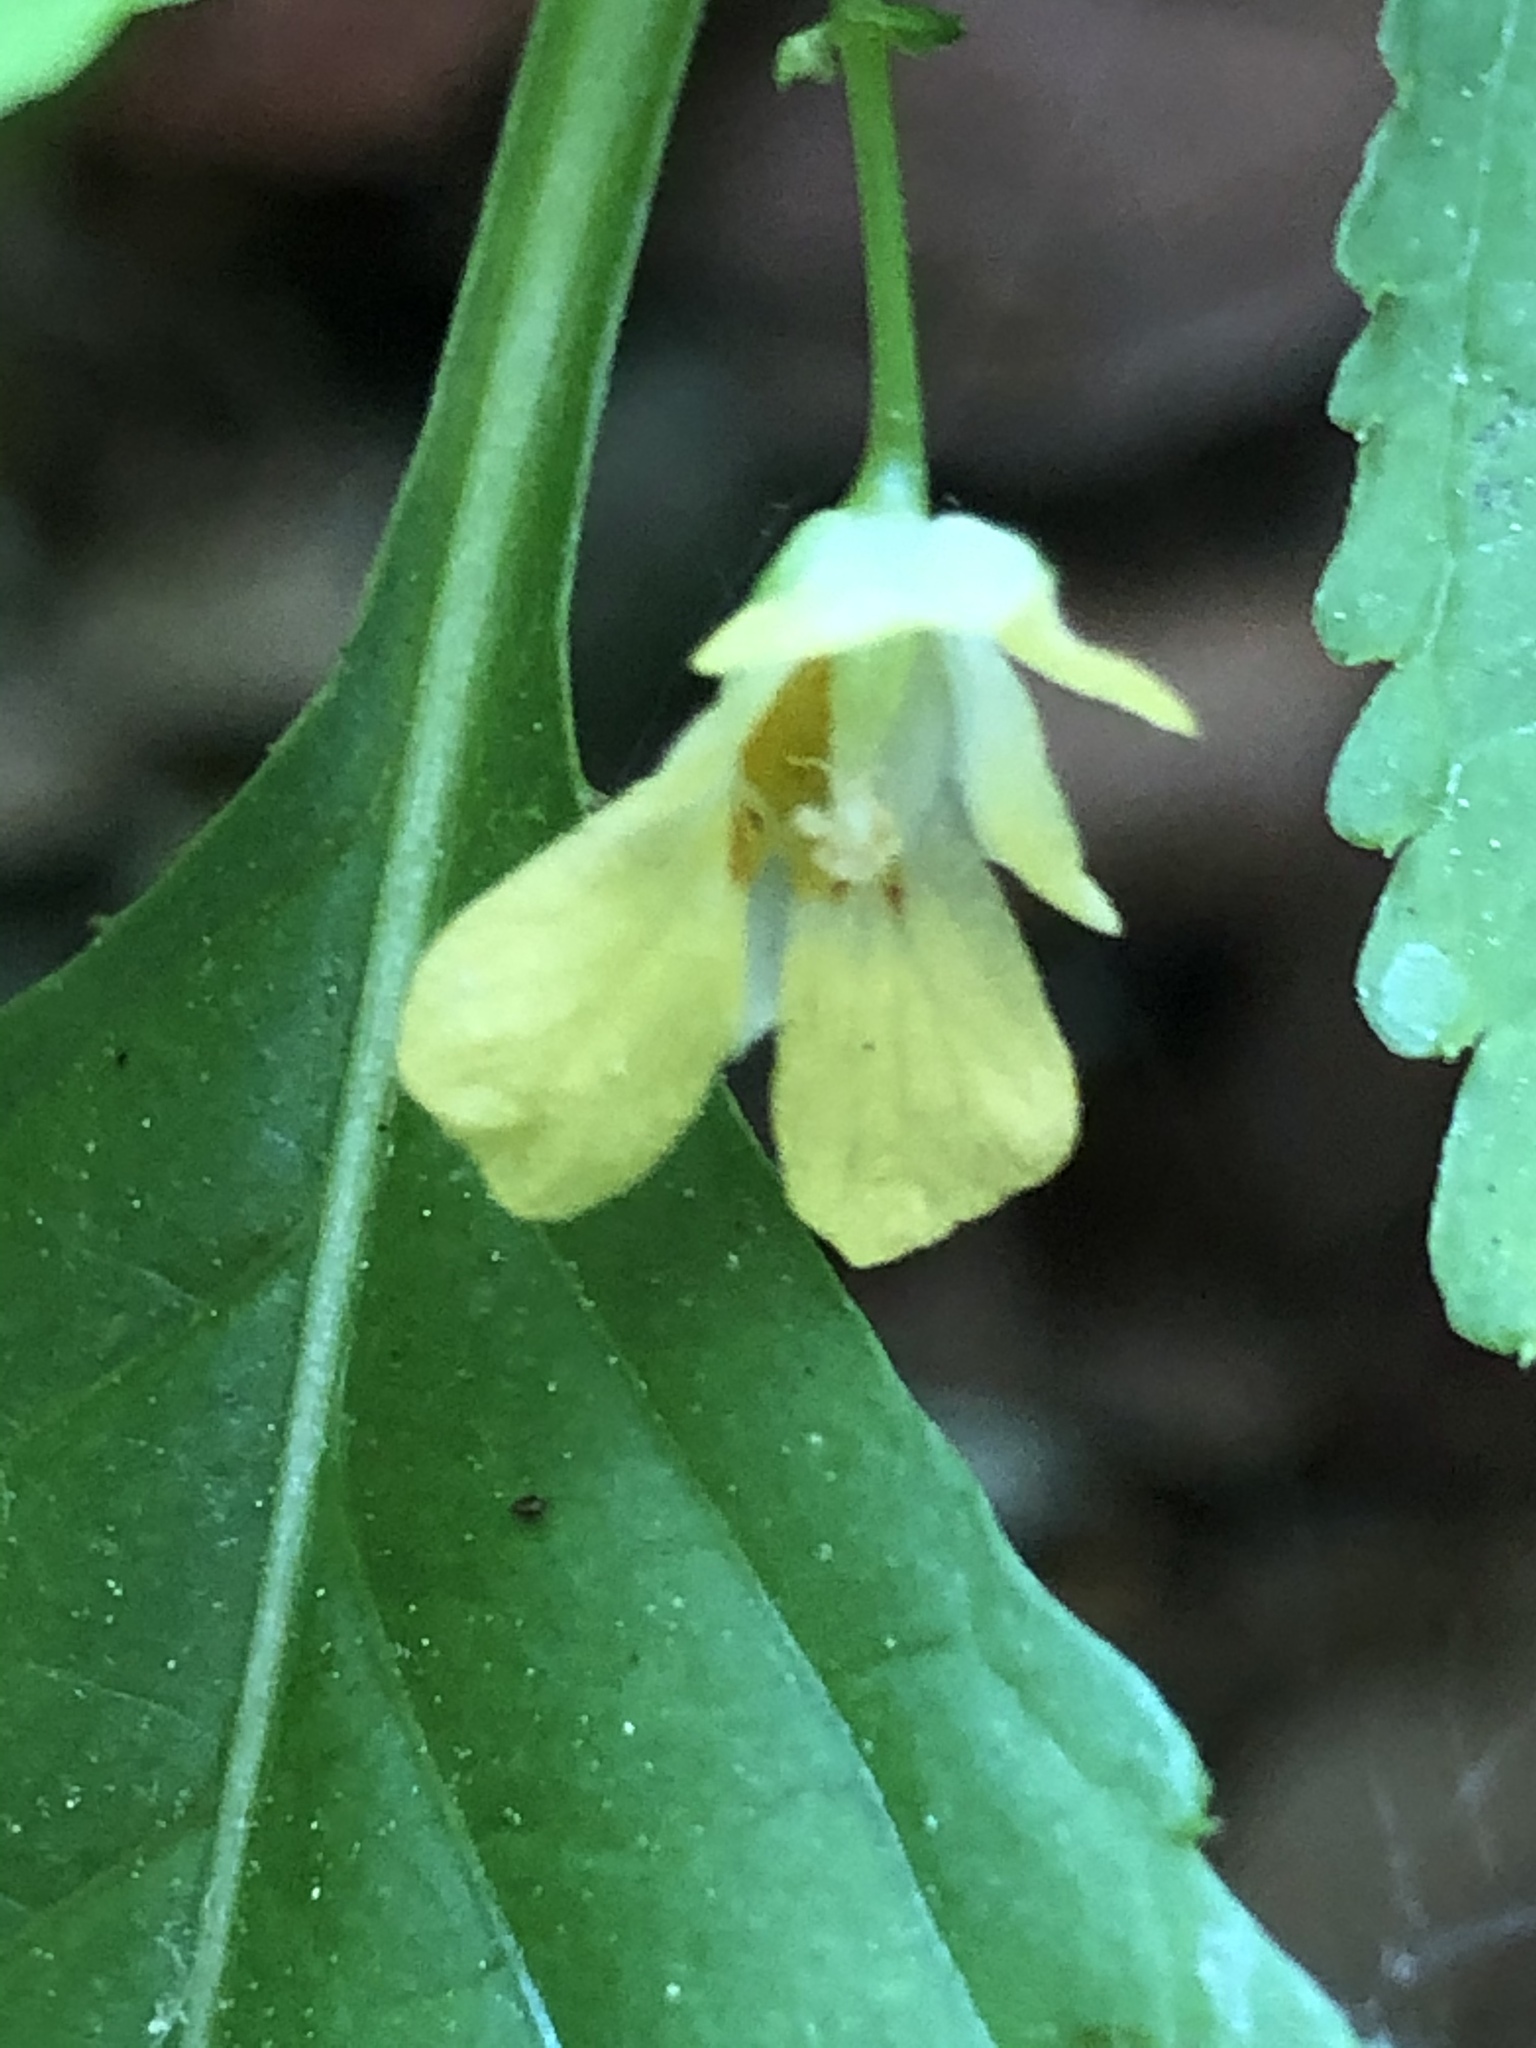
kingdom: Plantae
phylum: Tracheophyta
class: Magnoliopsida
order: Ericales
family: Balsaminaceae
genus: Impatiens
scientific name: Impatiens parviflora
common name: Small balsam
